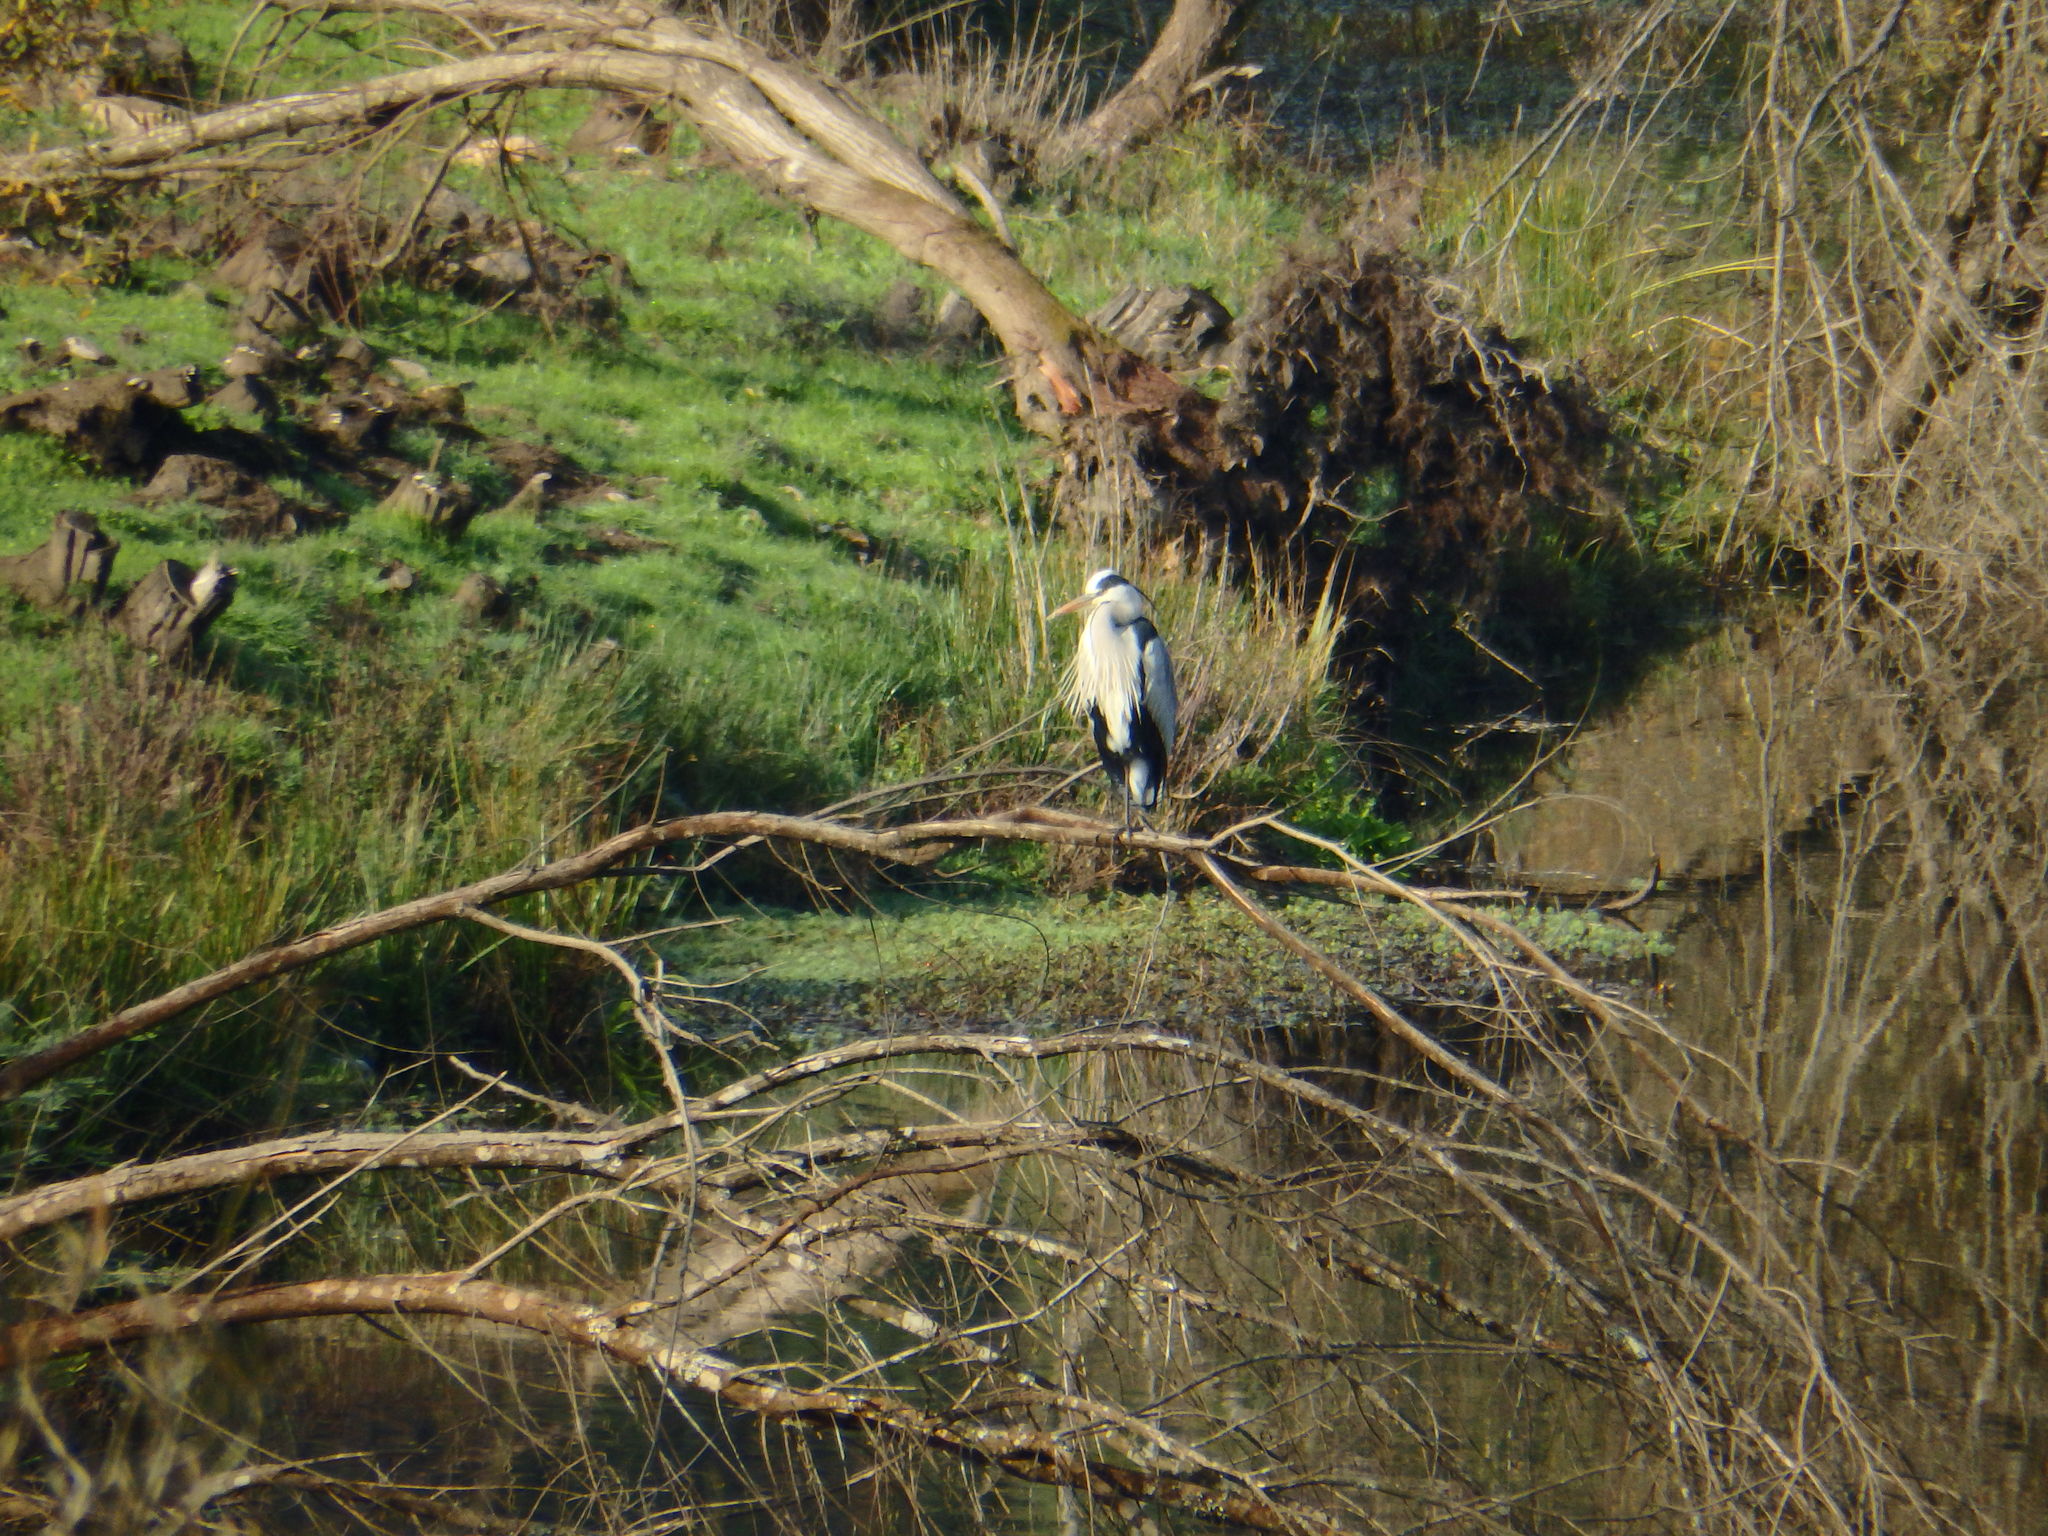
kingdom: Animalia
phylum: Chordata
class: Aves
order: Pelecaniformes
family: Ardeidae
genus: Ardea
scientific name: Ardea cinerea
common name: Grey heron
